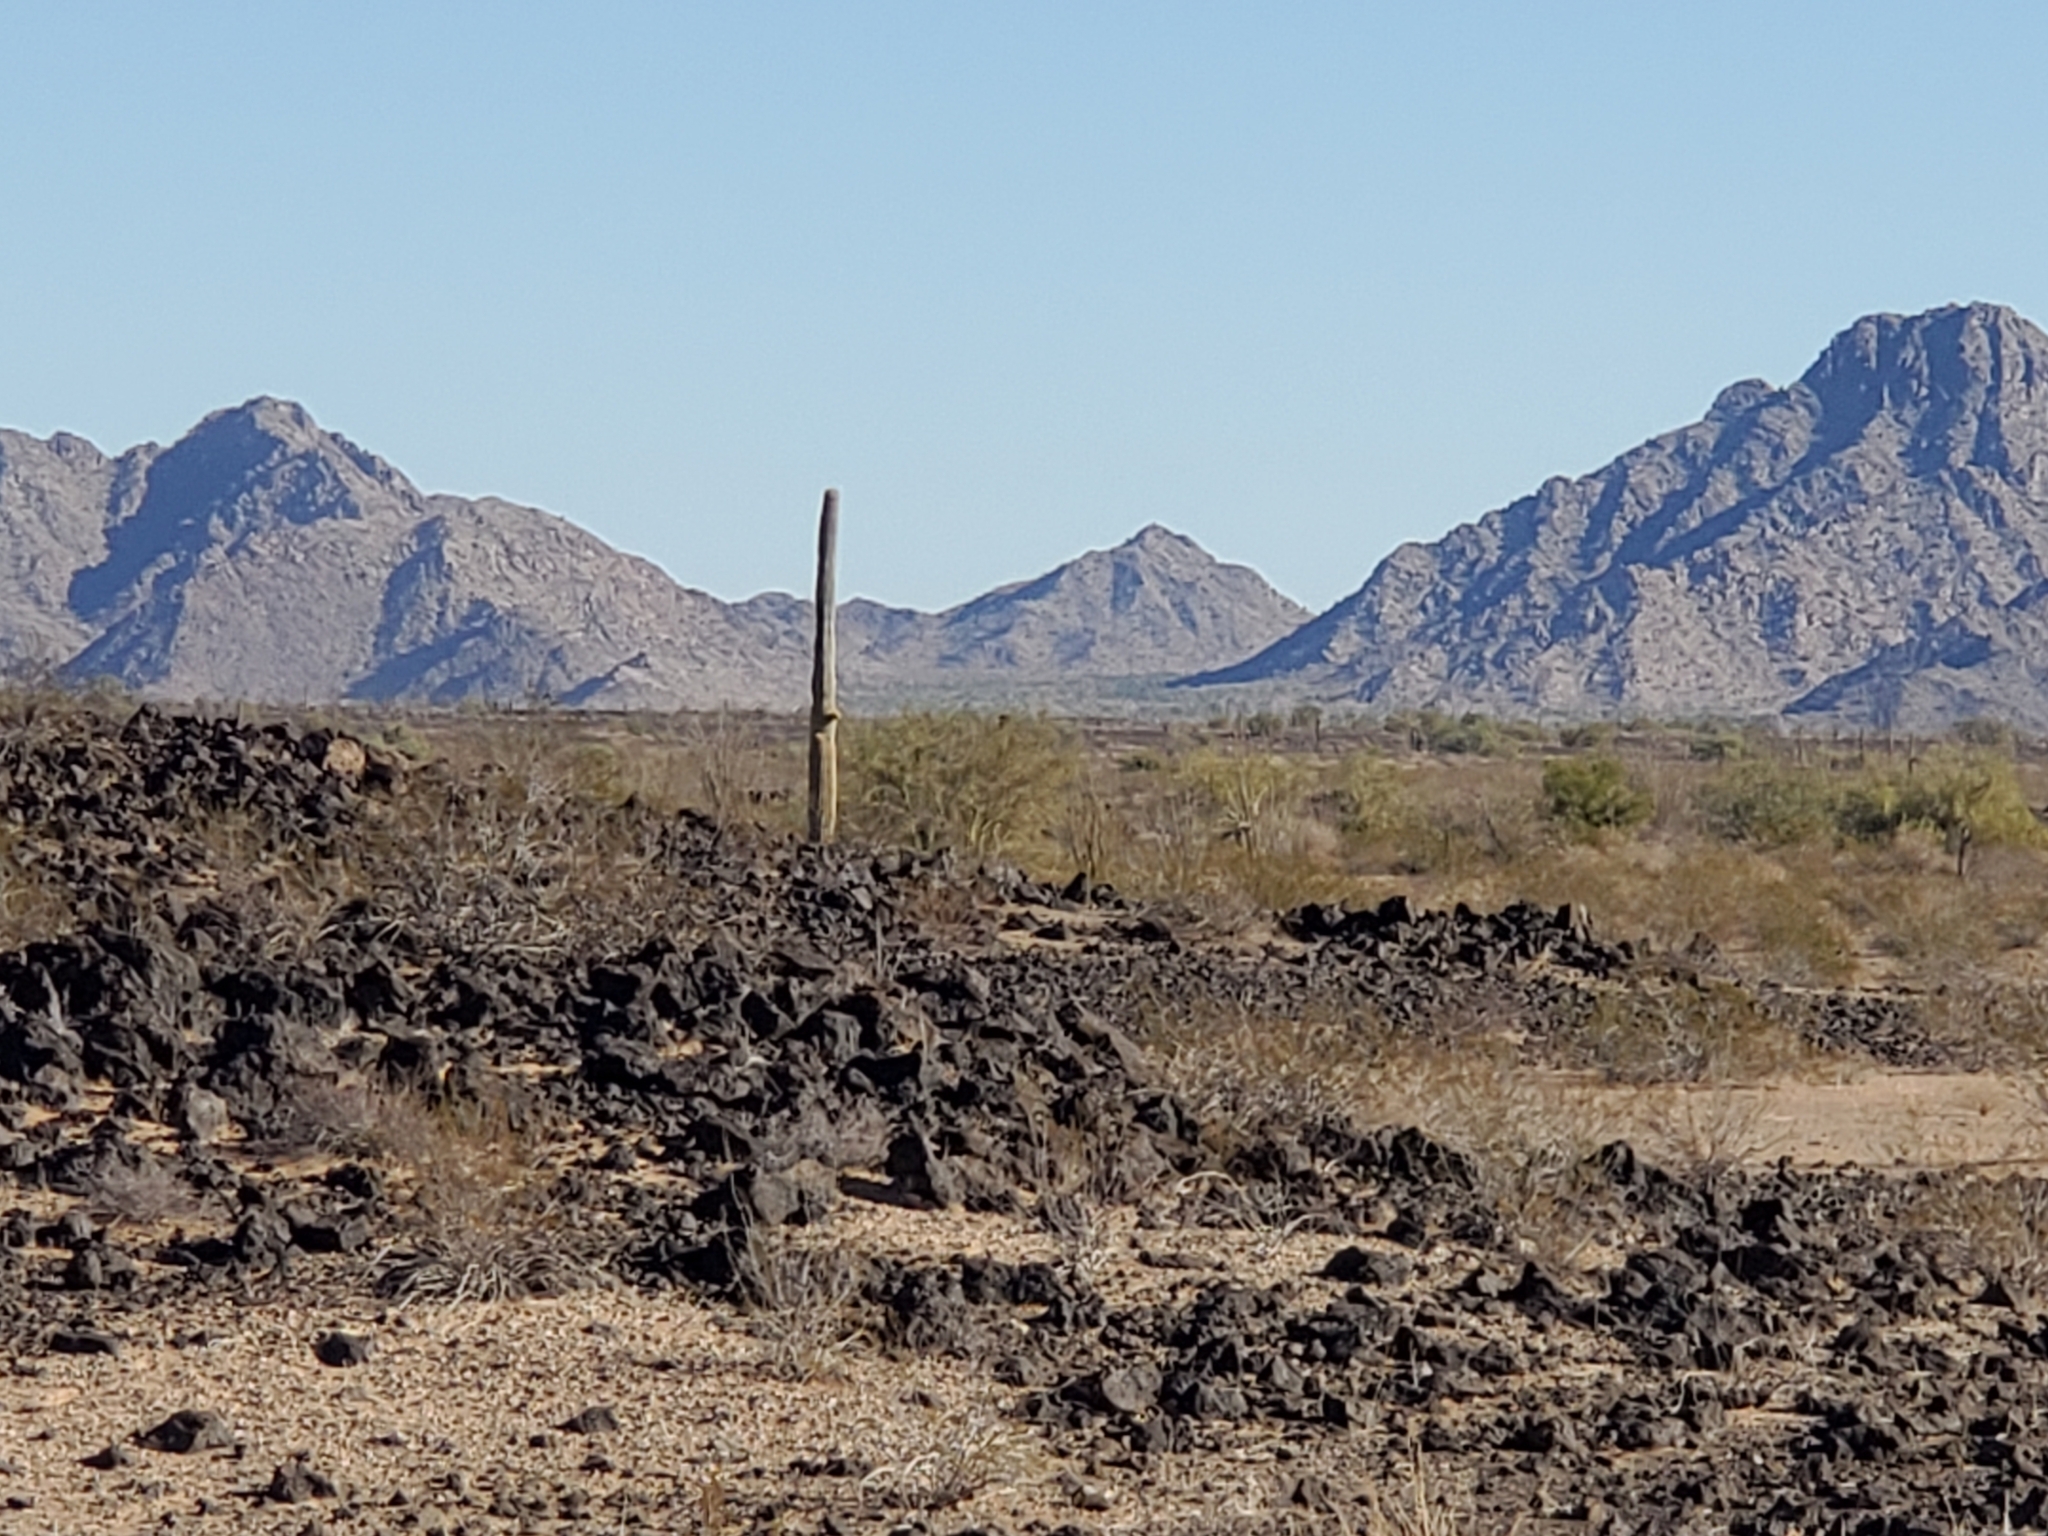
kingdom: Plantae
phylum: Tracheophyta
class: Magnoliopsida
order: Caryophyllales
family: Cactaceae
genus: Carnegiea
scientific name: Carnegiea gigantea
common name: Saguaro
